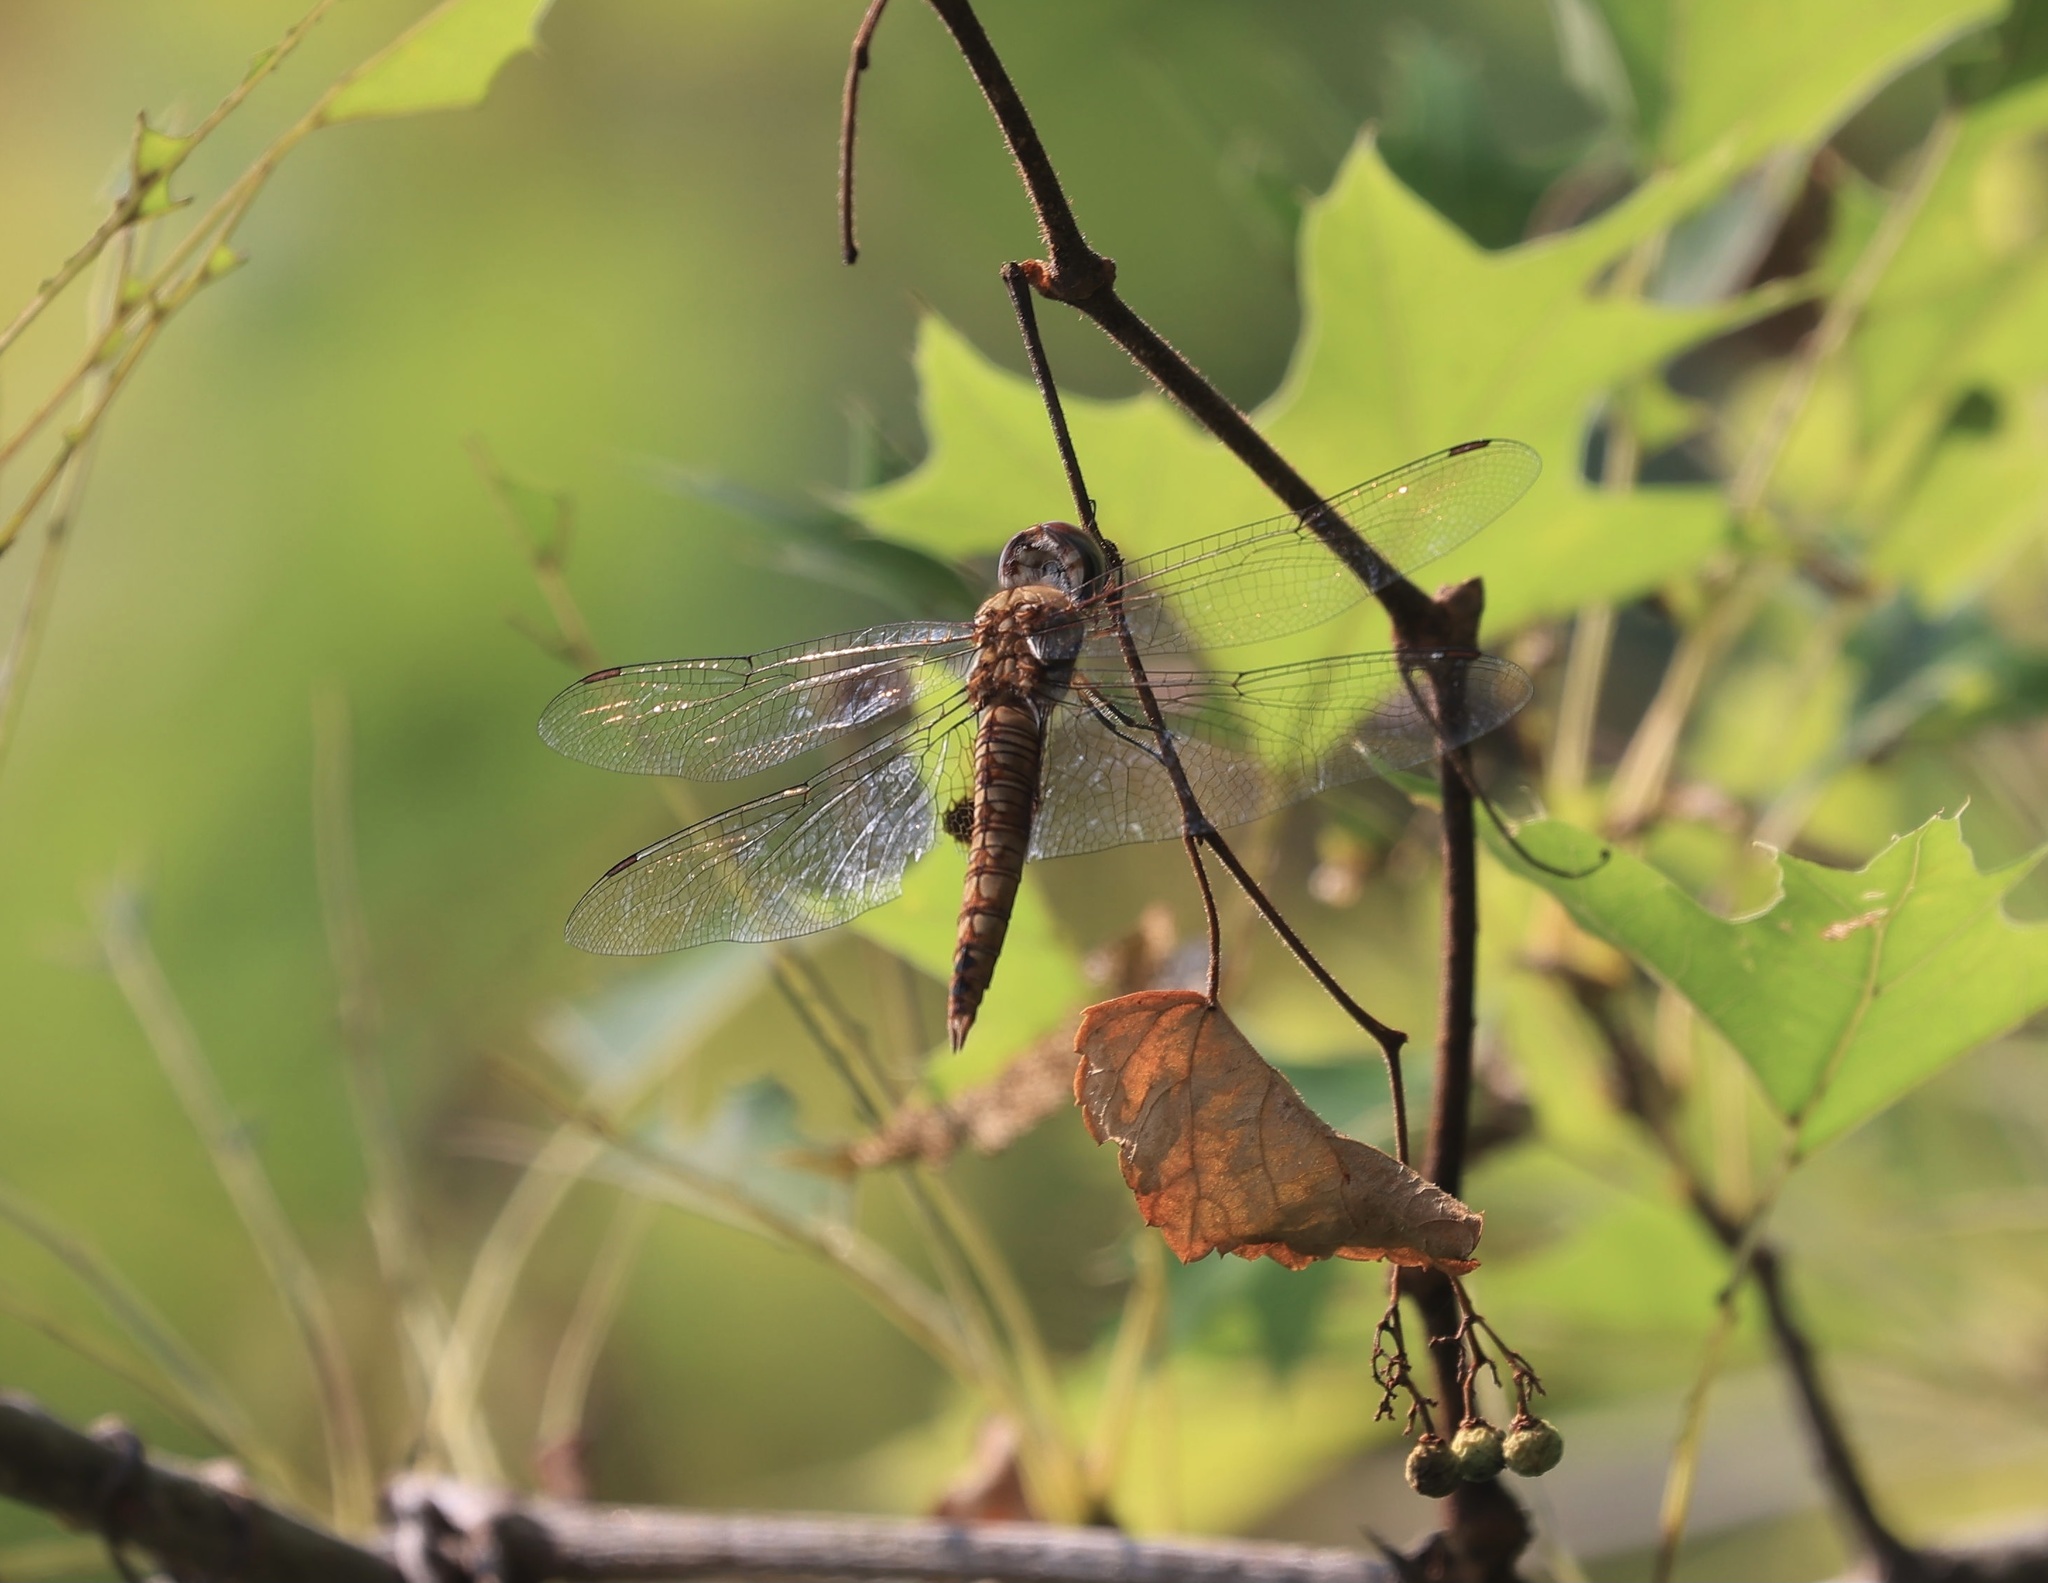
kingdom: Animalia
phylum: Arthropoda
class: Insecta
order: Odonata
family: Libellulidae
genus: Pantala
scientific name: Pantala hymenaea
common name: Spot-winged glider
